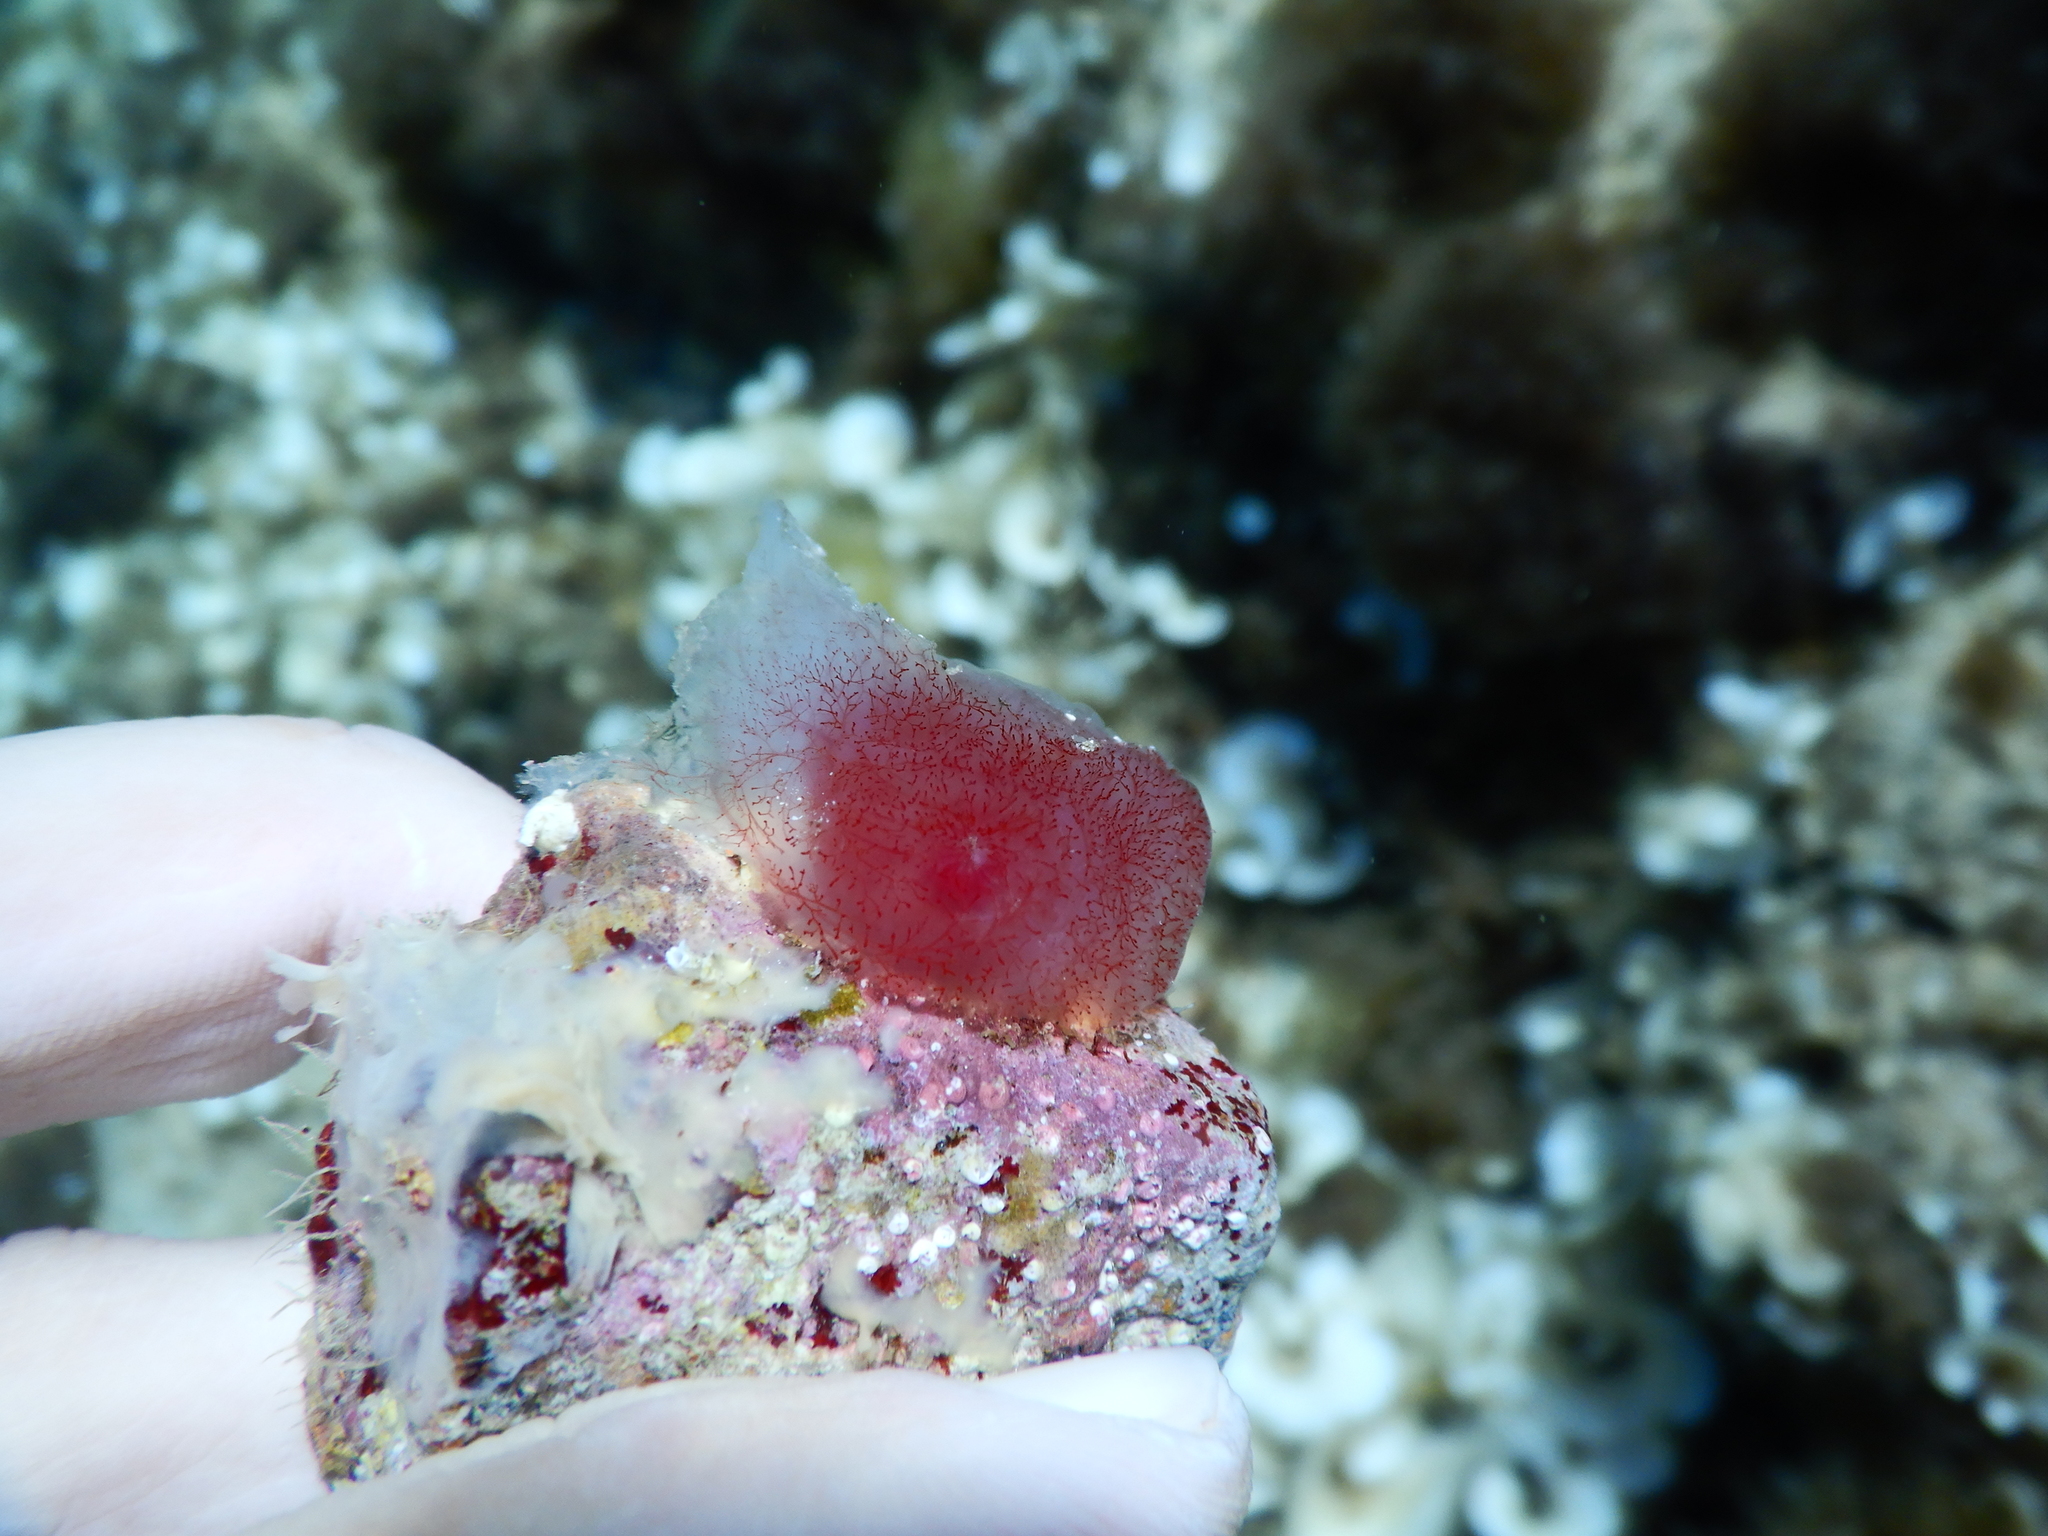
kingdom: Animalia
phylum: Chordata
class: Ascidiacea
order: Phlebobranchia
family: Ascidiidae
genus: Ascidia
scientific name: Ascidia mentula
